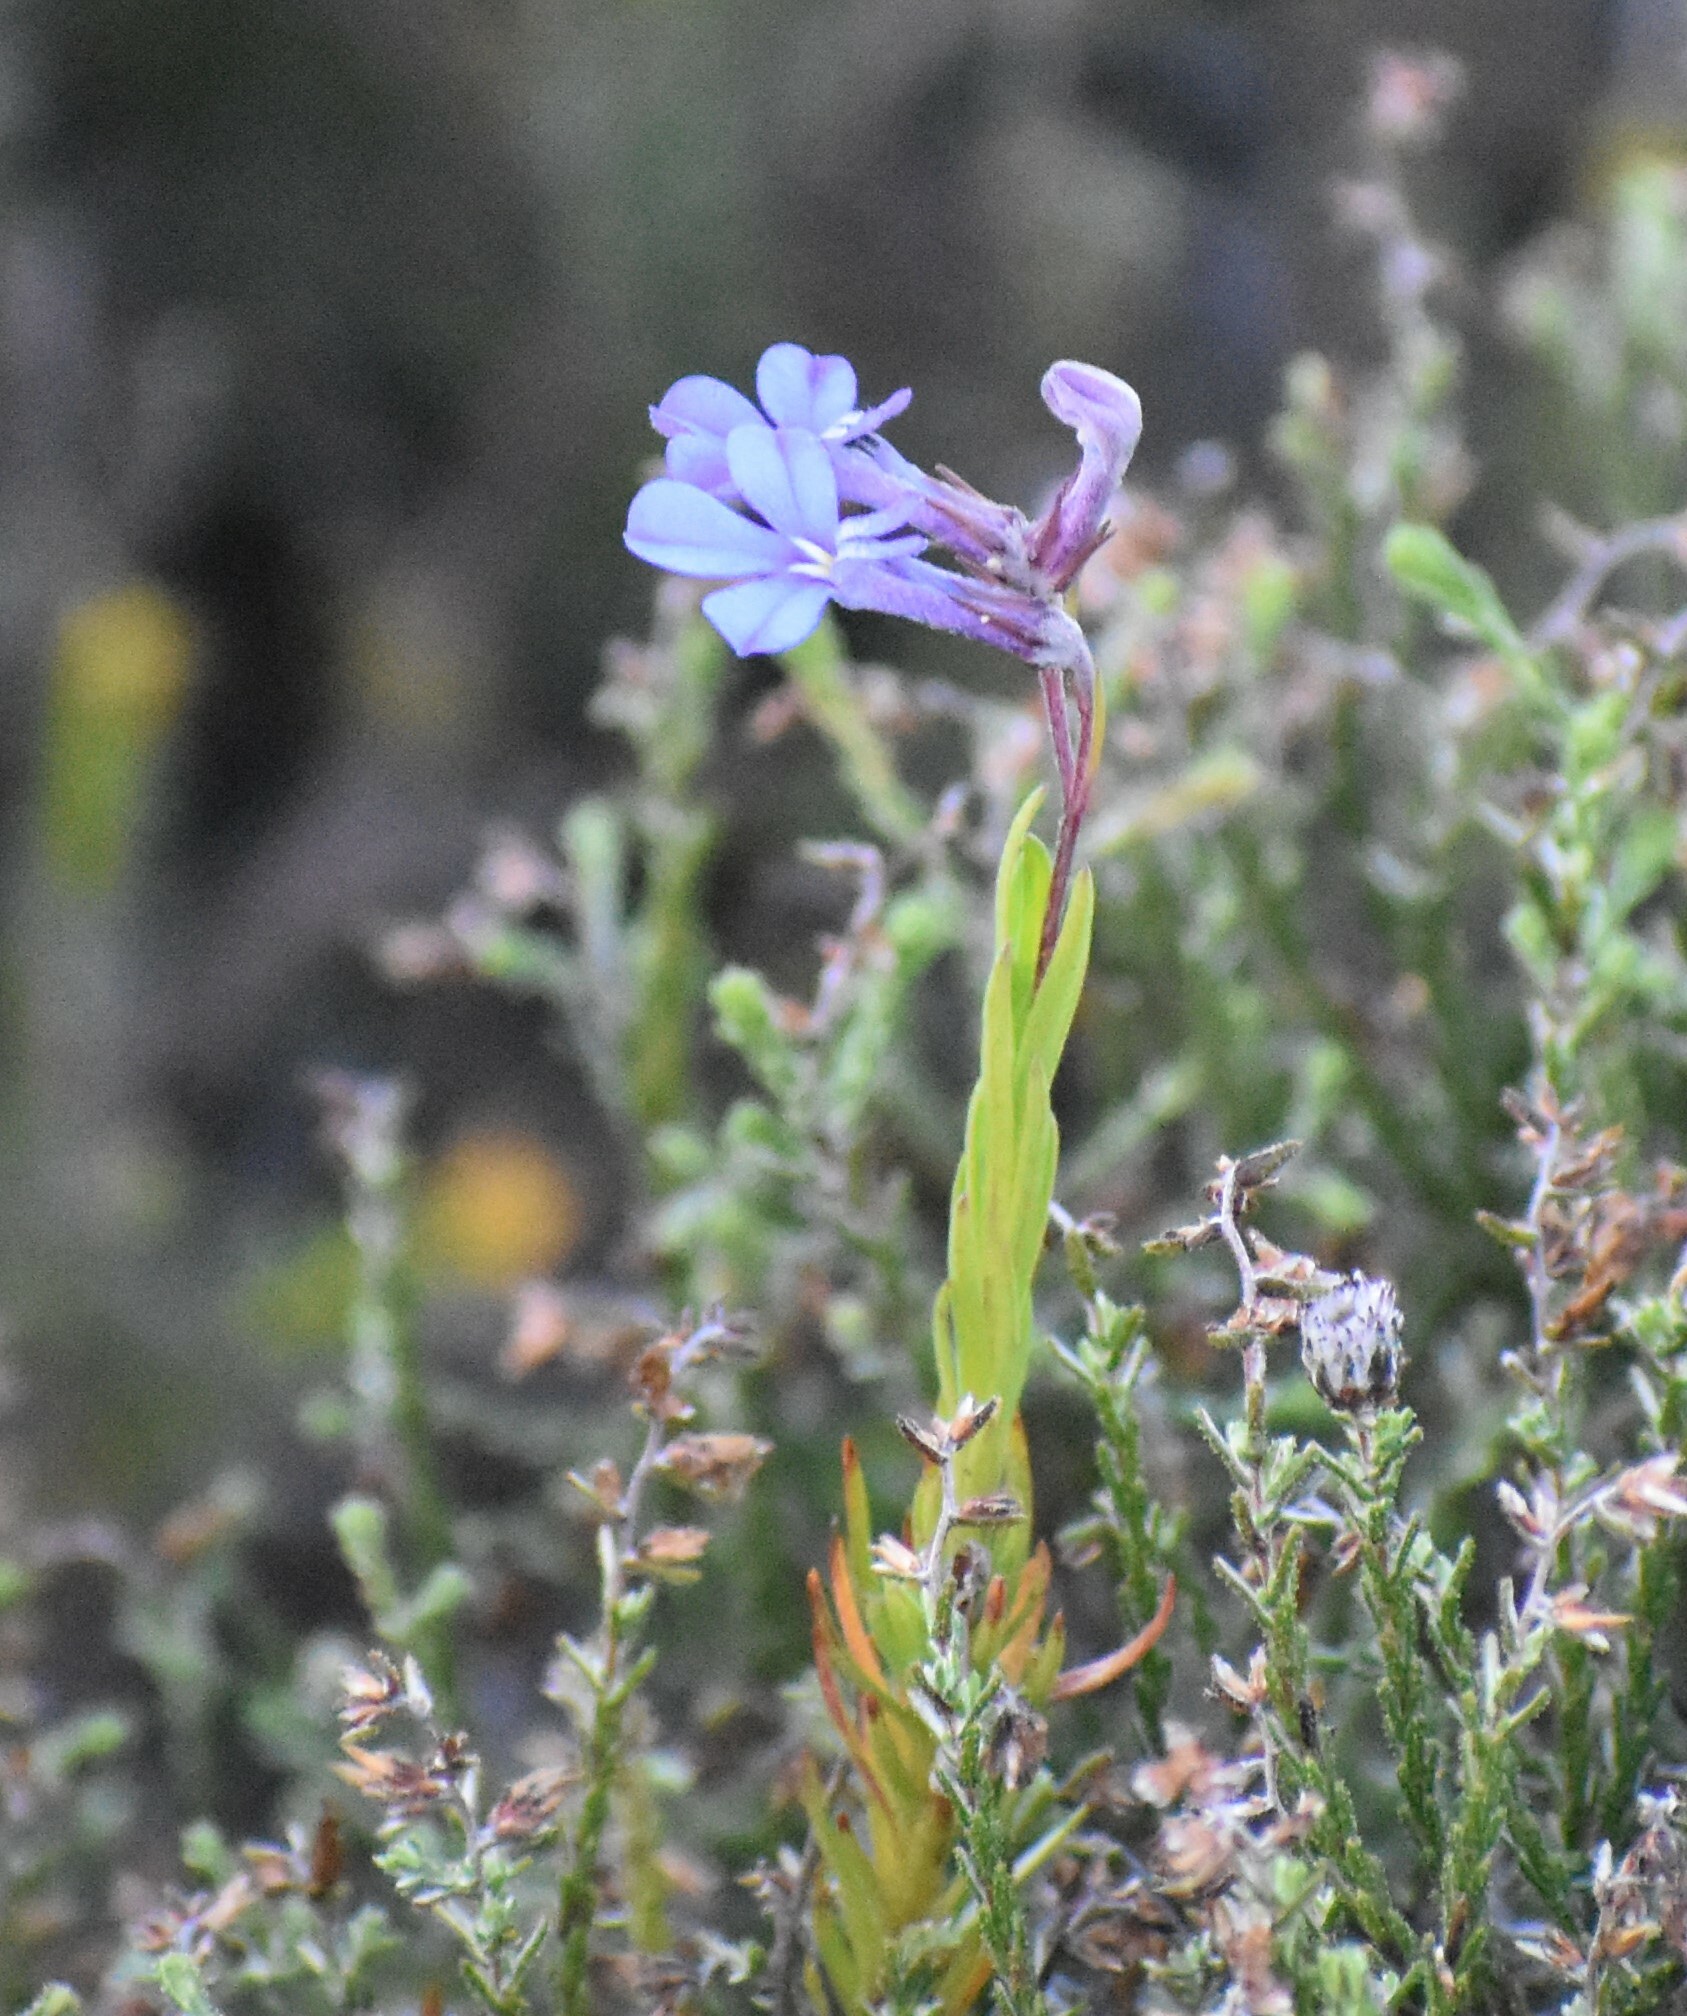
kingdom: Plantae
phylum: Tracheophyta
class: Magnoliopsida
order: Asterales
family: Campanulaceae
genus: Lobelia
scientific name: Lobelia pinifolia
